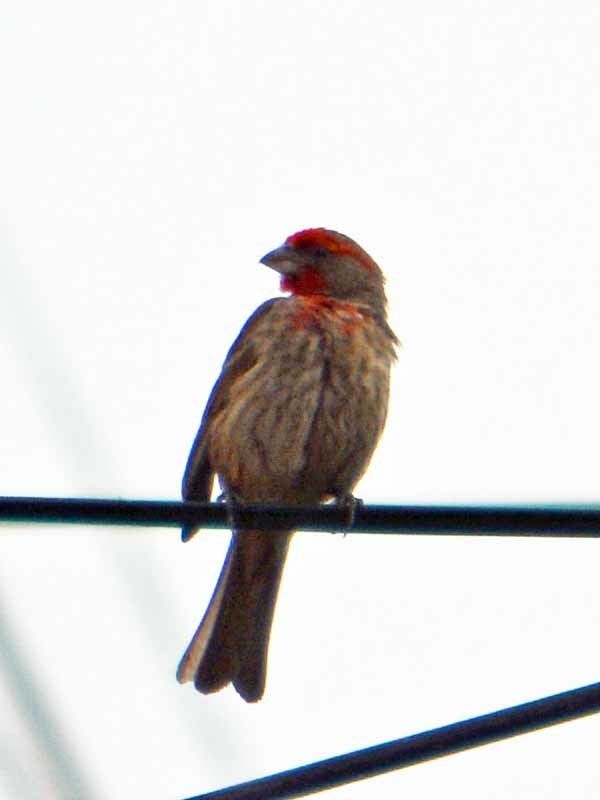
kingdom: Animalia
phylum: Chordata
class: Aves
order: Passeriformes
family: Fringillidae
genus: Haemorhous
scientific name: Haemorhous mexicanus
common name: House finch
